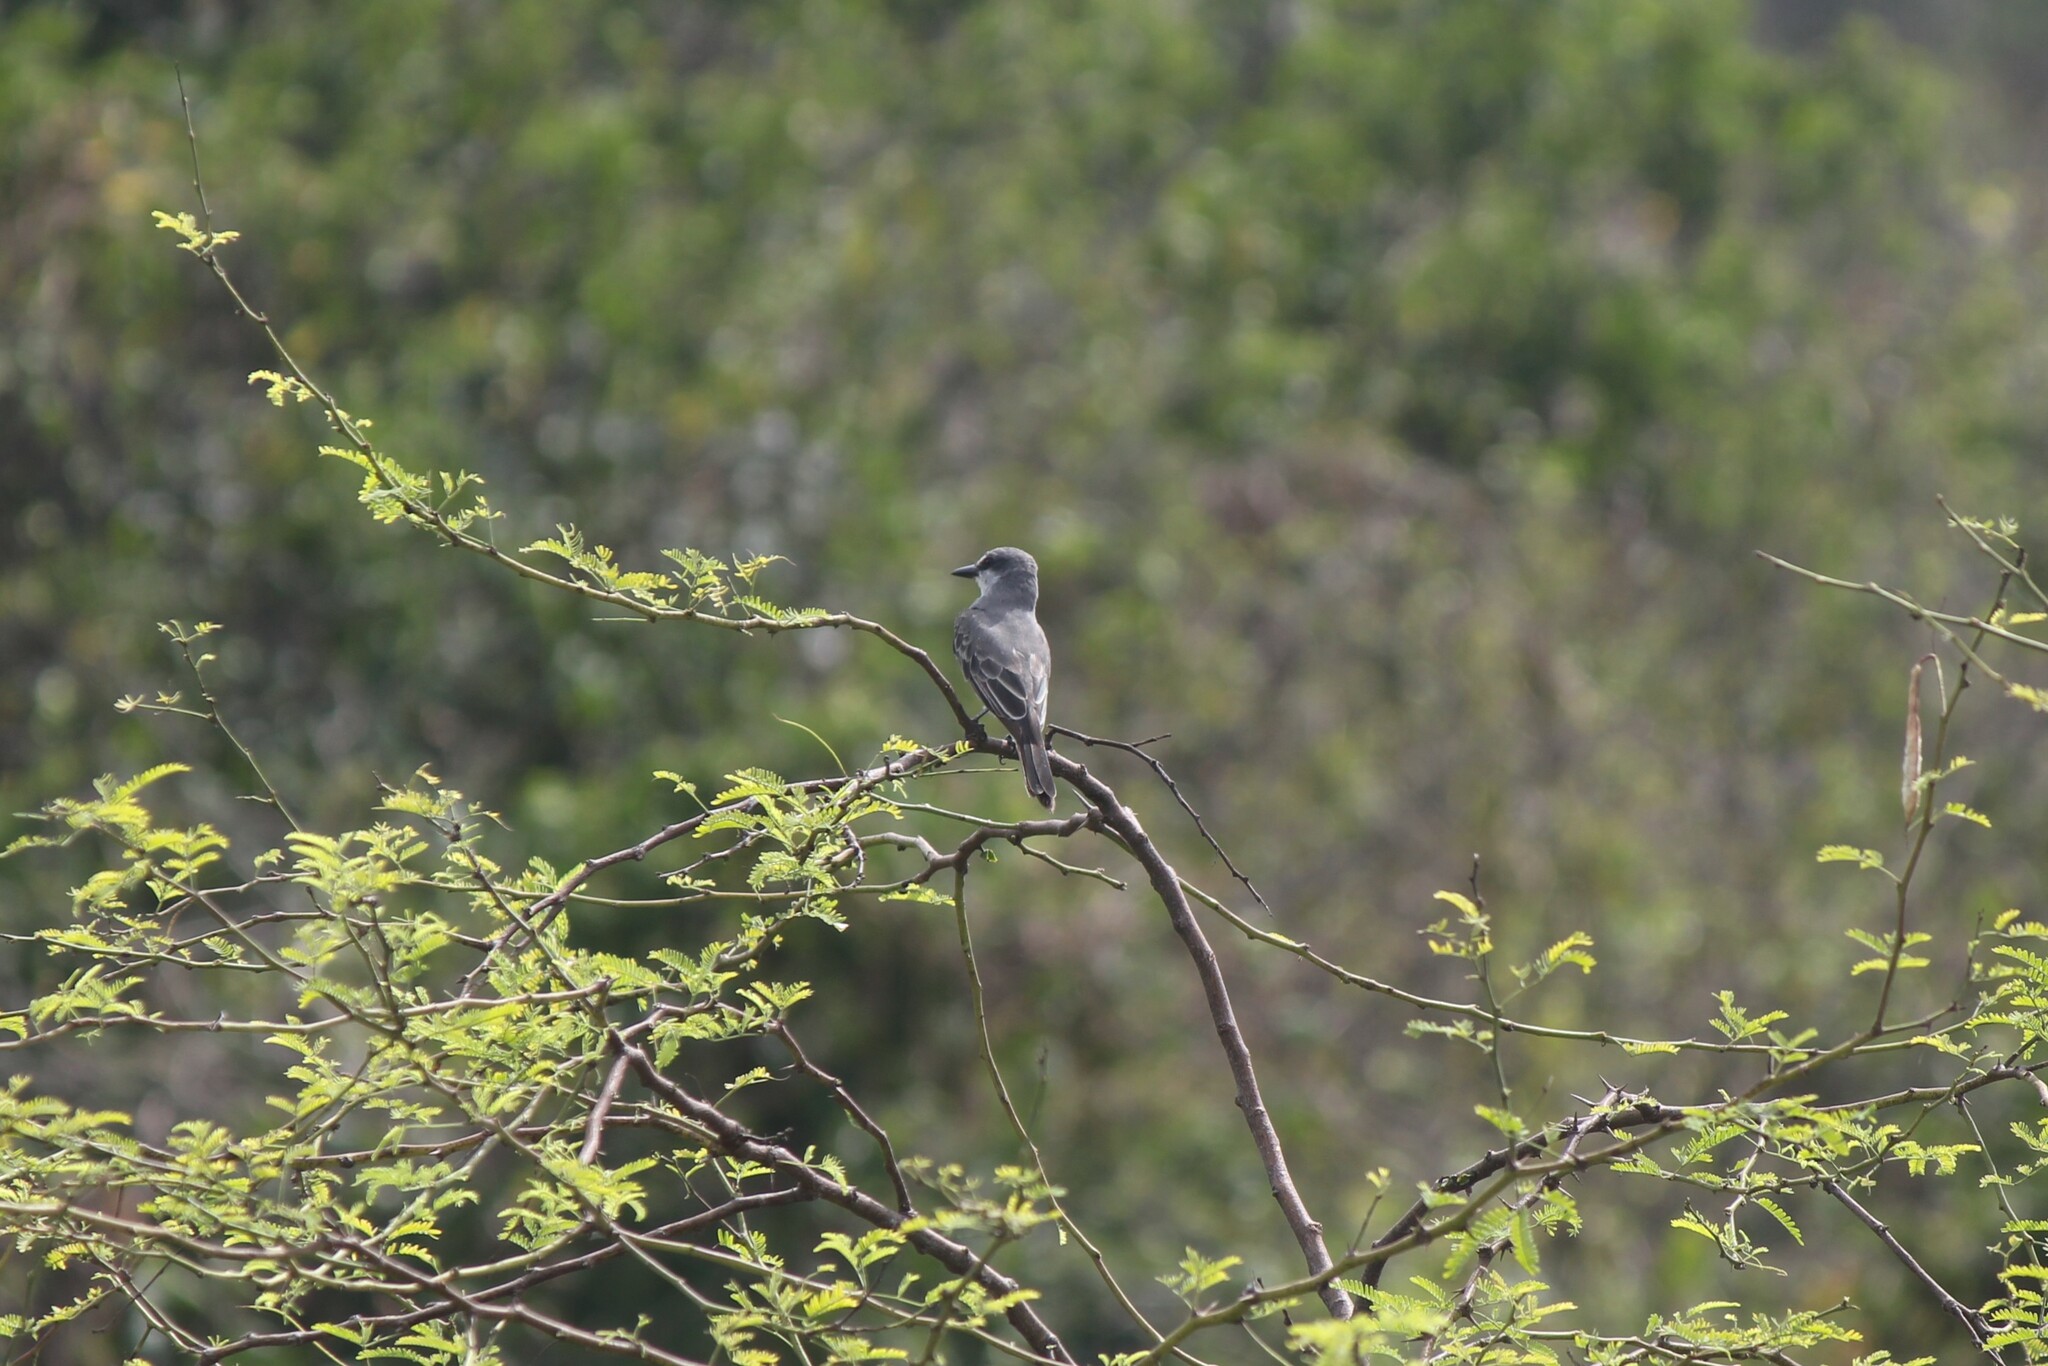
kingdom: Animalia
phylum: Chordata
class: Aves
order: Passeriformes
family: Tyrannidae
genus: Tyrannus
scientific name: Tyrannus dominicensis
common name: Gray kingbird
